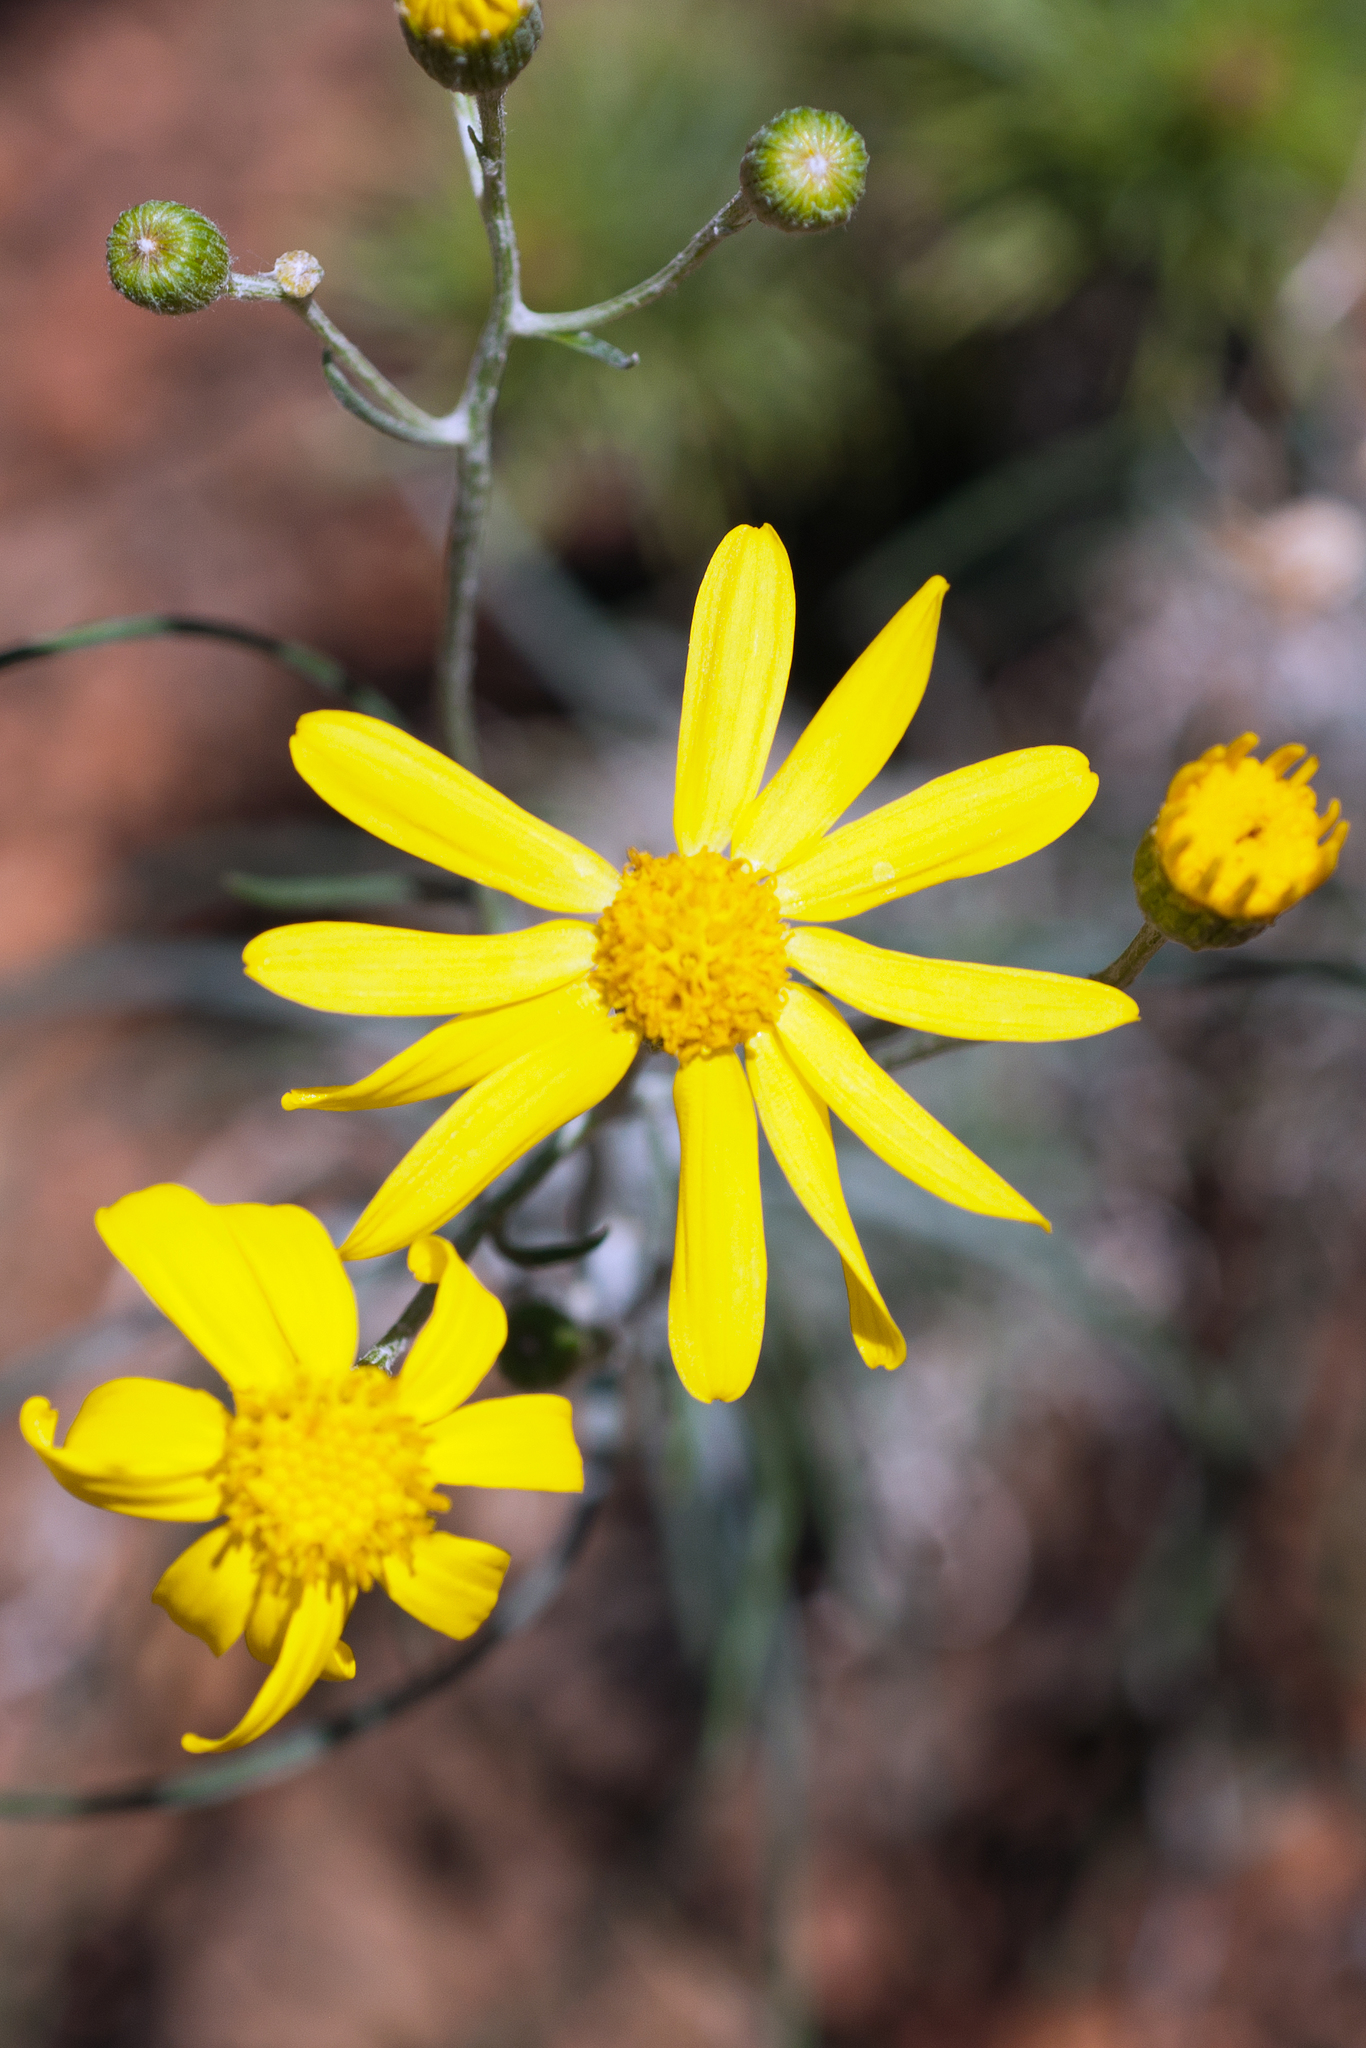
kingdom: Plantae
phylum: Tracheophyta
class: Magnoliopsida
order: Asterales
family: Asteraceae
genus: Senecio
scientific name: Senecio flaccidus
